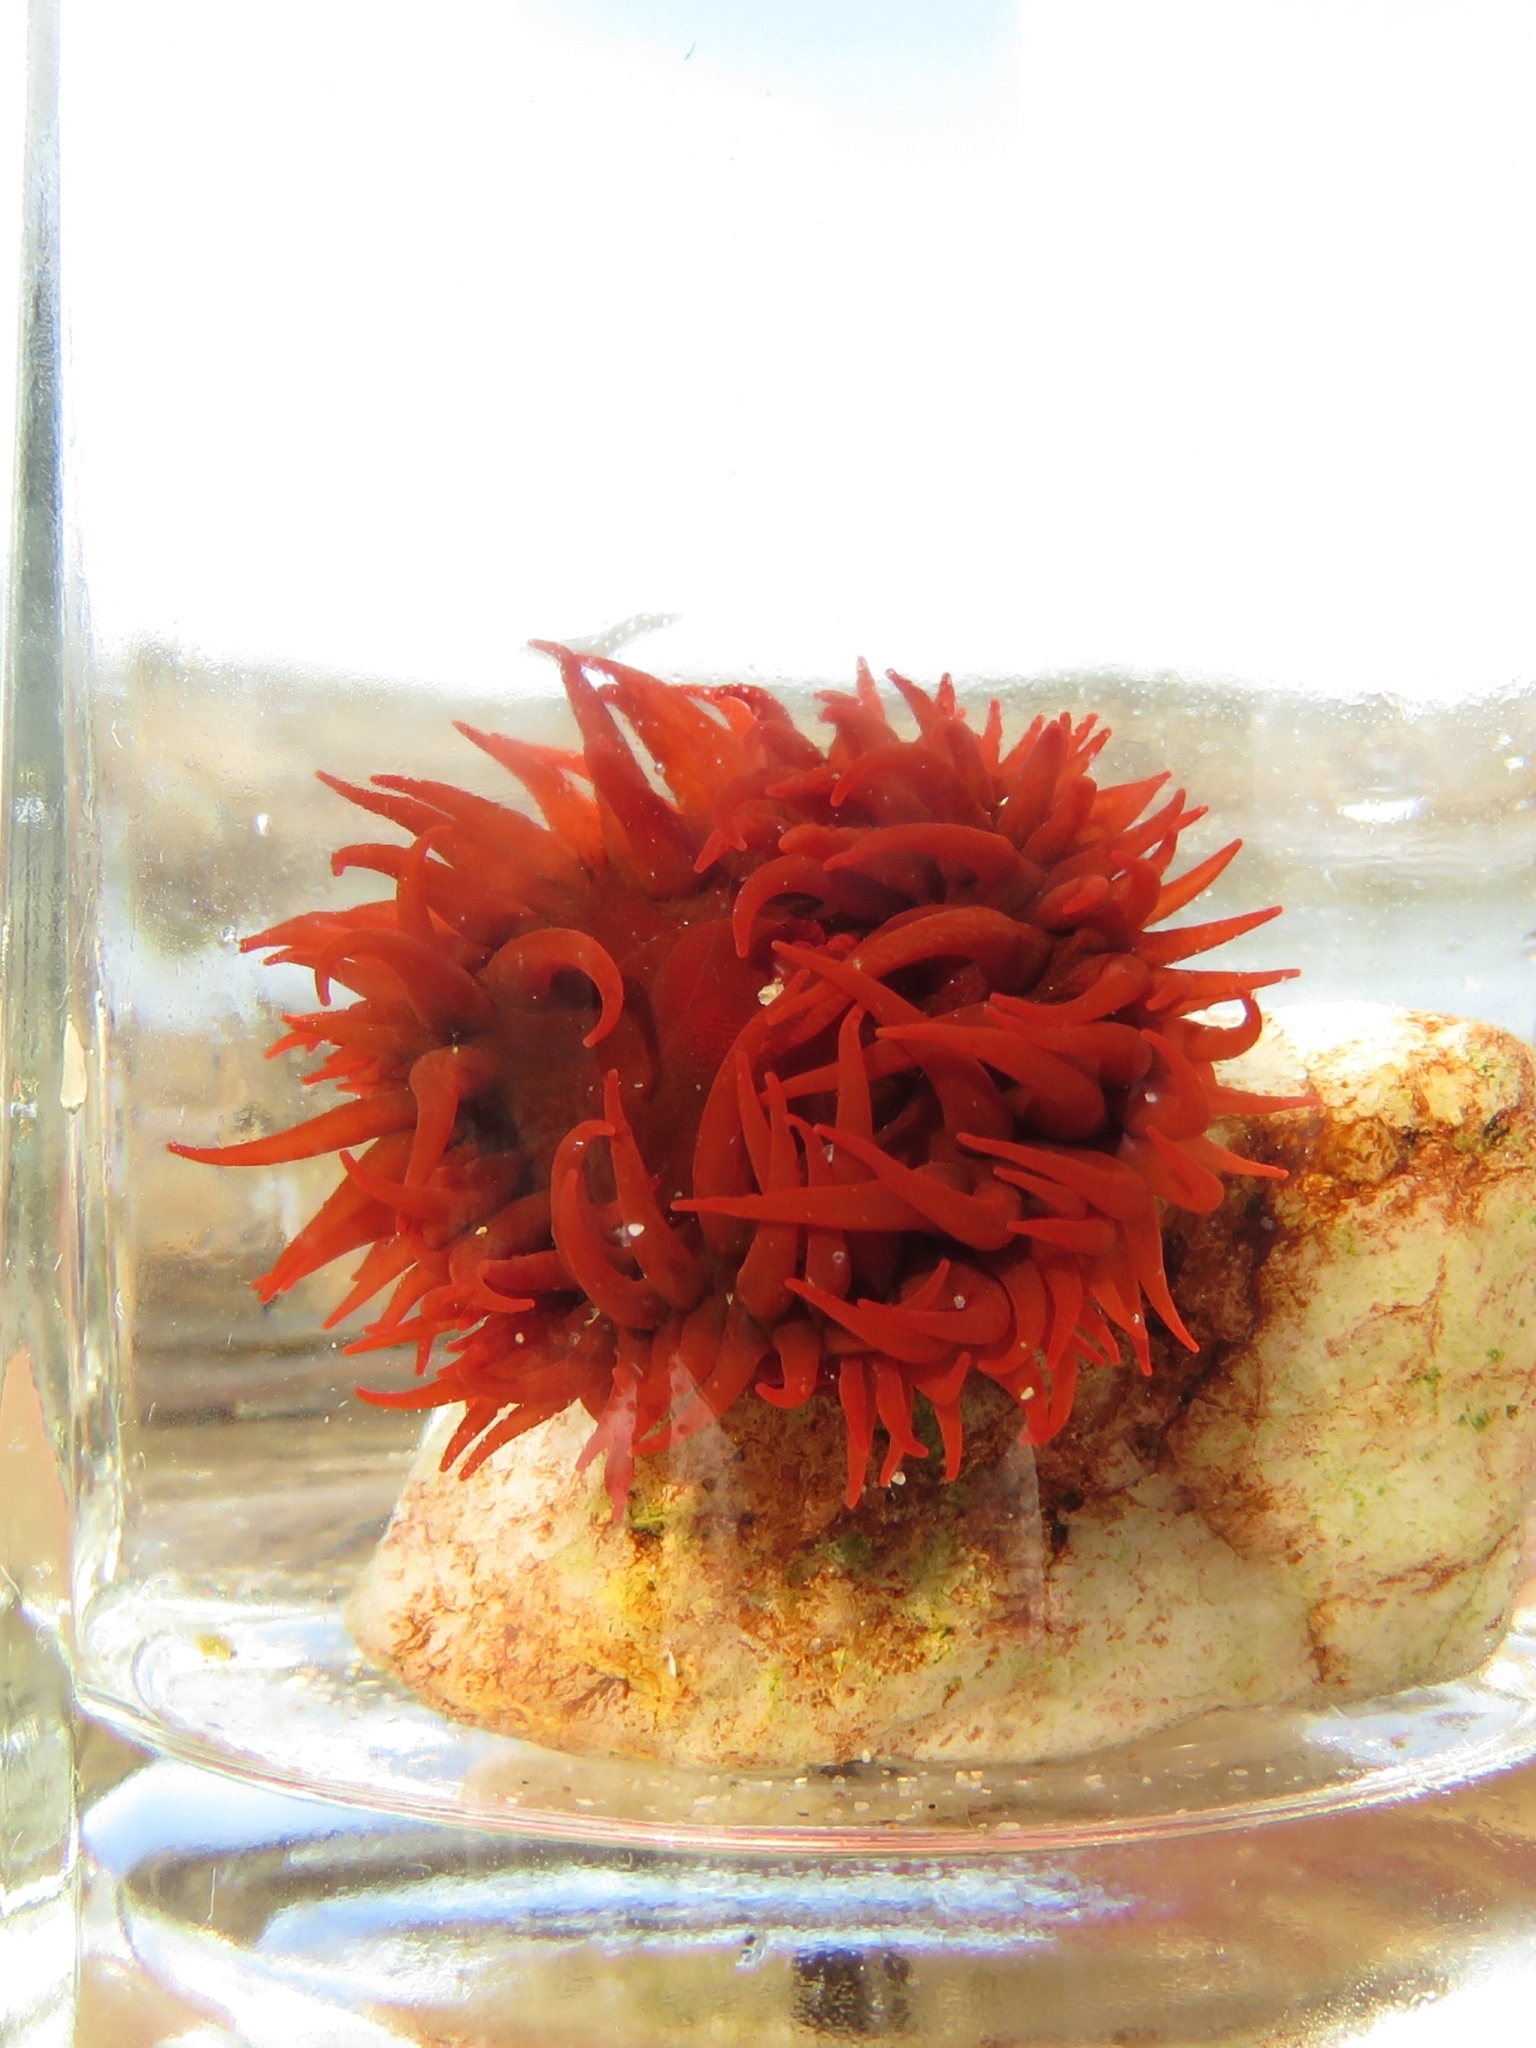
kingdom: Animalia
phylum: Cnidaria
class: Anthozoa
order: Actiniaria
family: Actiniidae
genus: Actinia
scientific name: Actinia ebhayiensis
